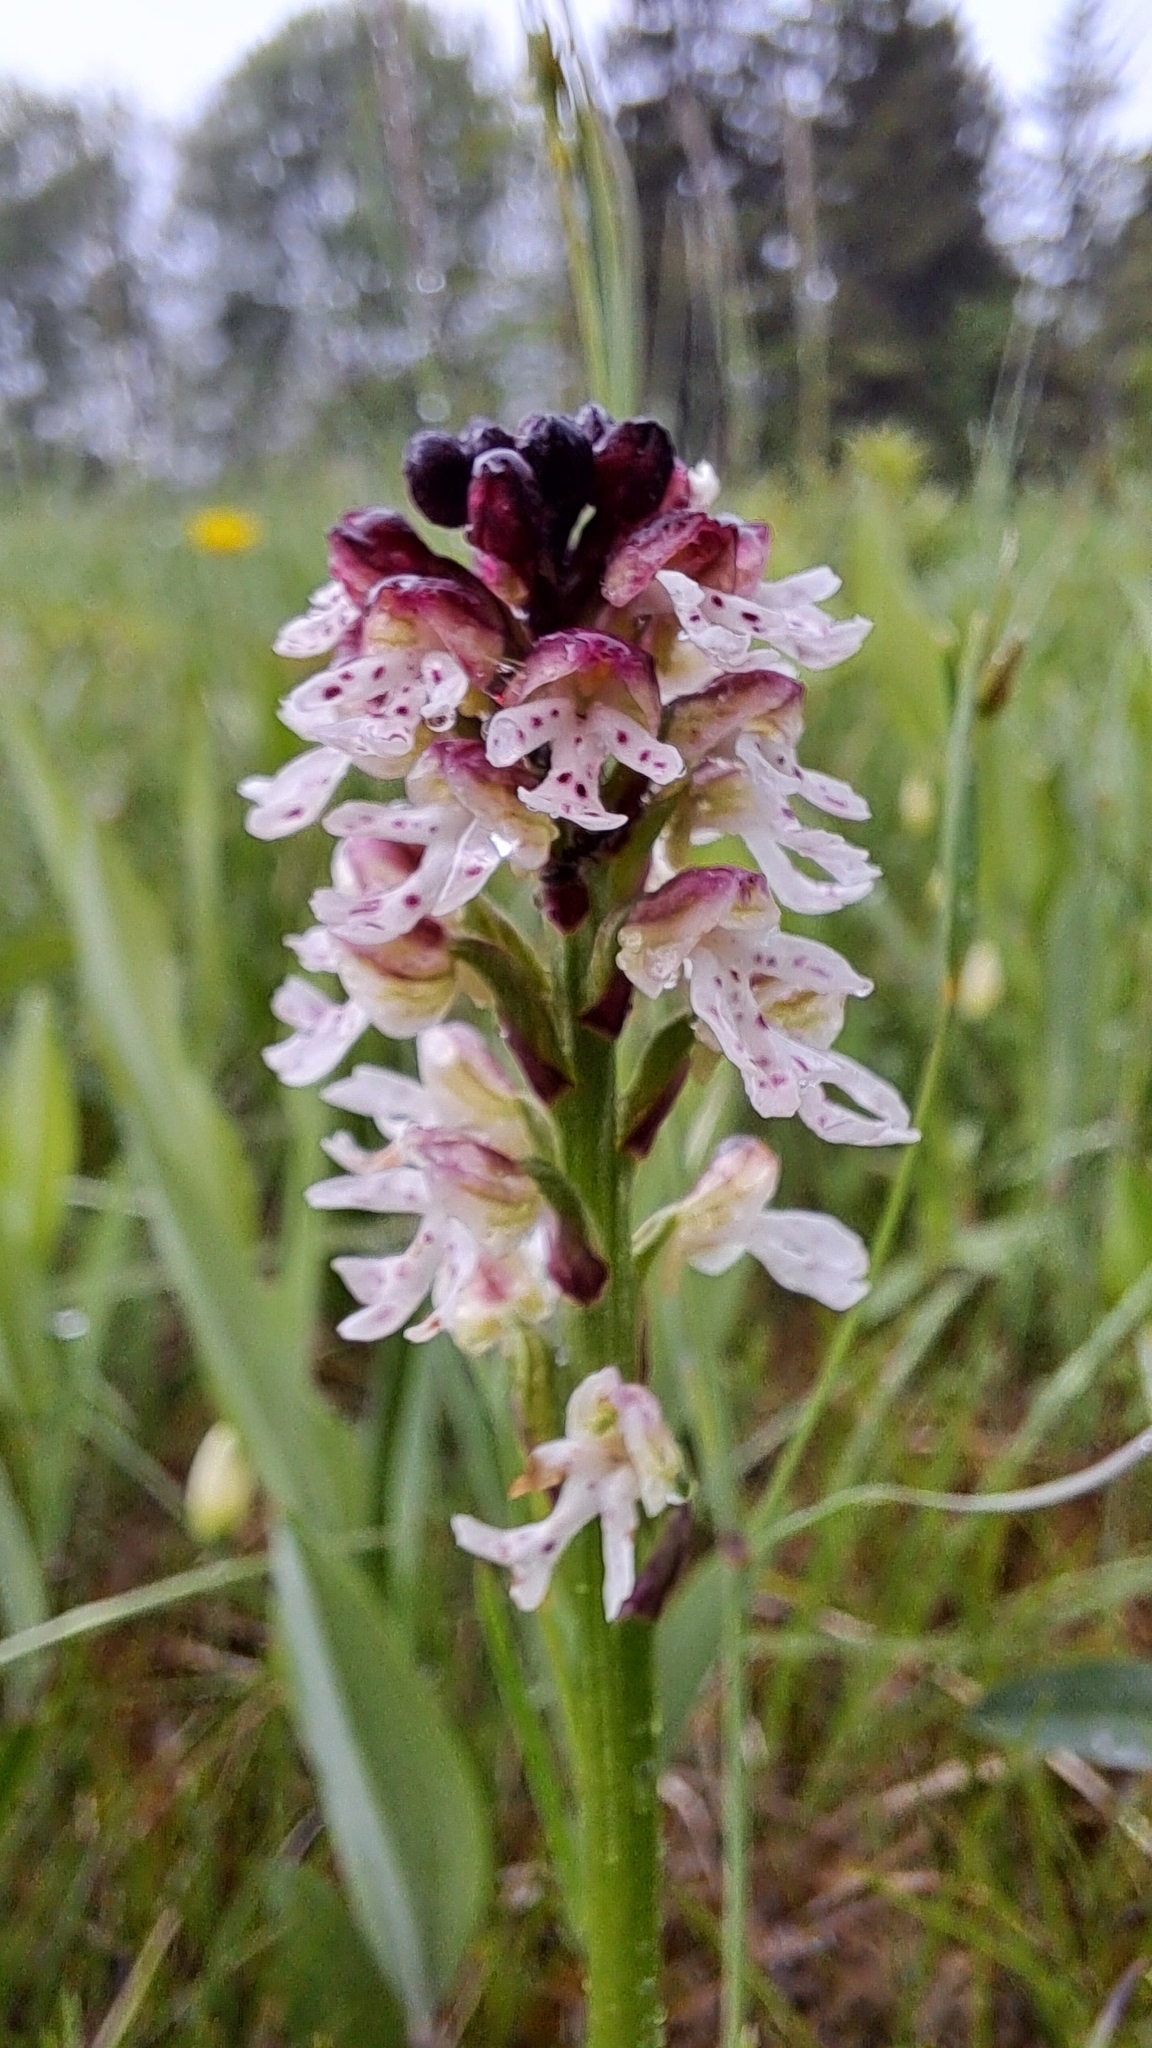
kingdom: Plantae
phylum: Tracheophyta
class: Liliopsida
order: Asparagales
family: Orchidaceae
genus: Neotinea
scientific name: Neotinea ustulata
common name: Burnt orchid
